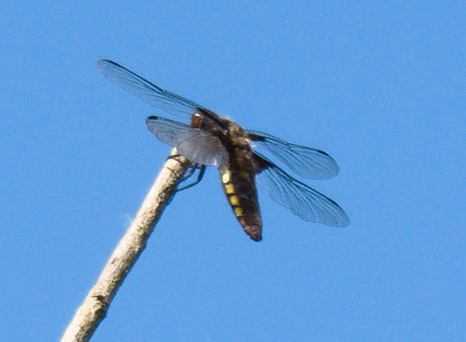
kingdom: Animalia
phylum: Arthropoda
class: Insecta
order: Odonata
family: Libellulidae
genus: Libellula
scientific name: Libellula depressa
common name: Broad-bodied chaser
